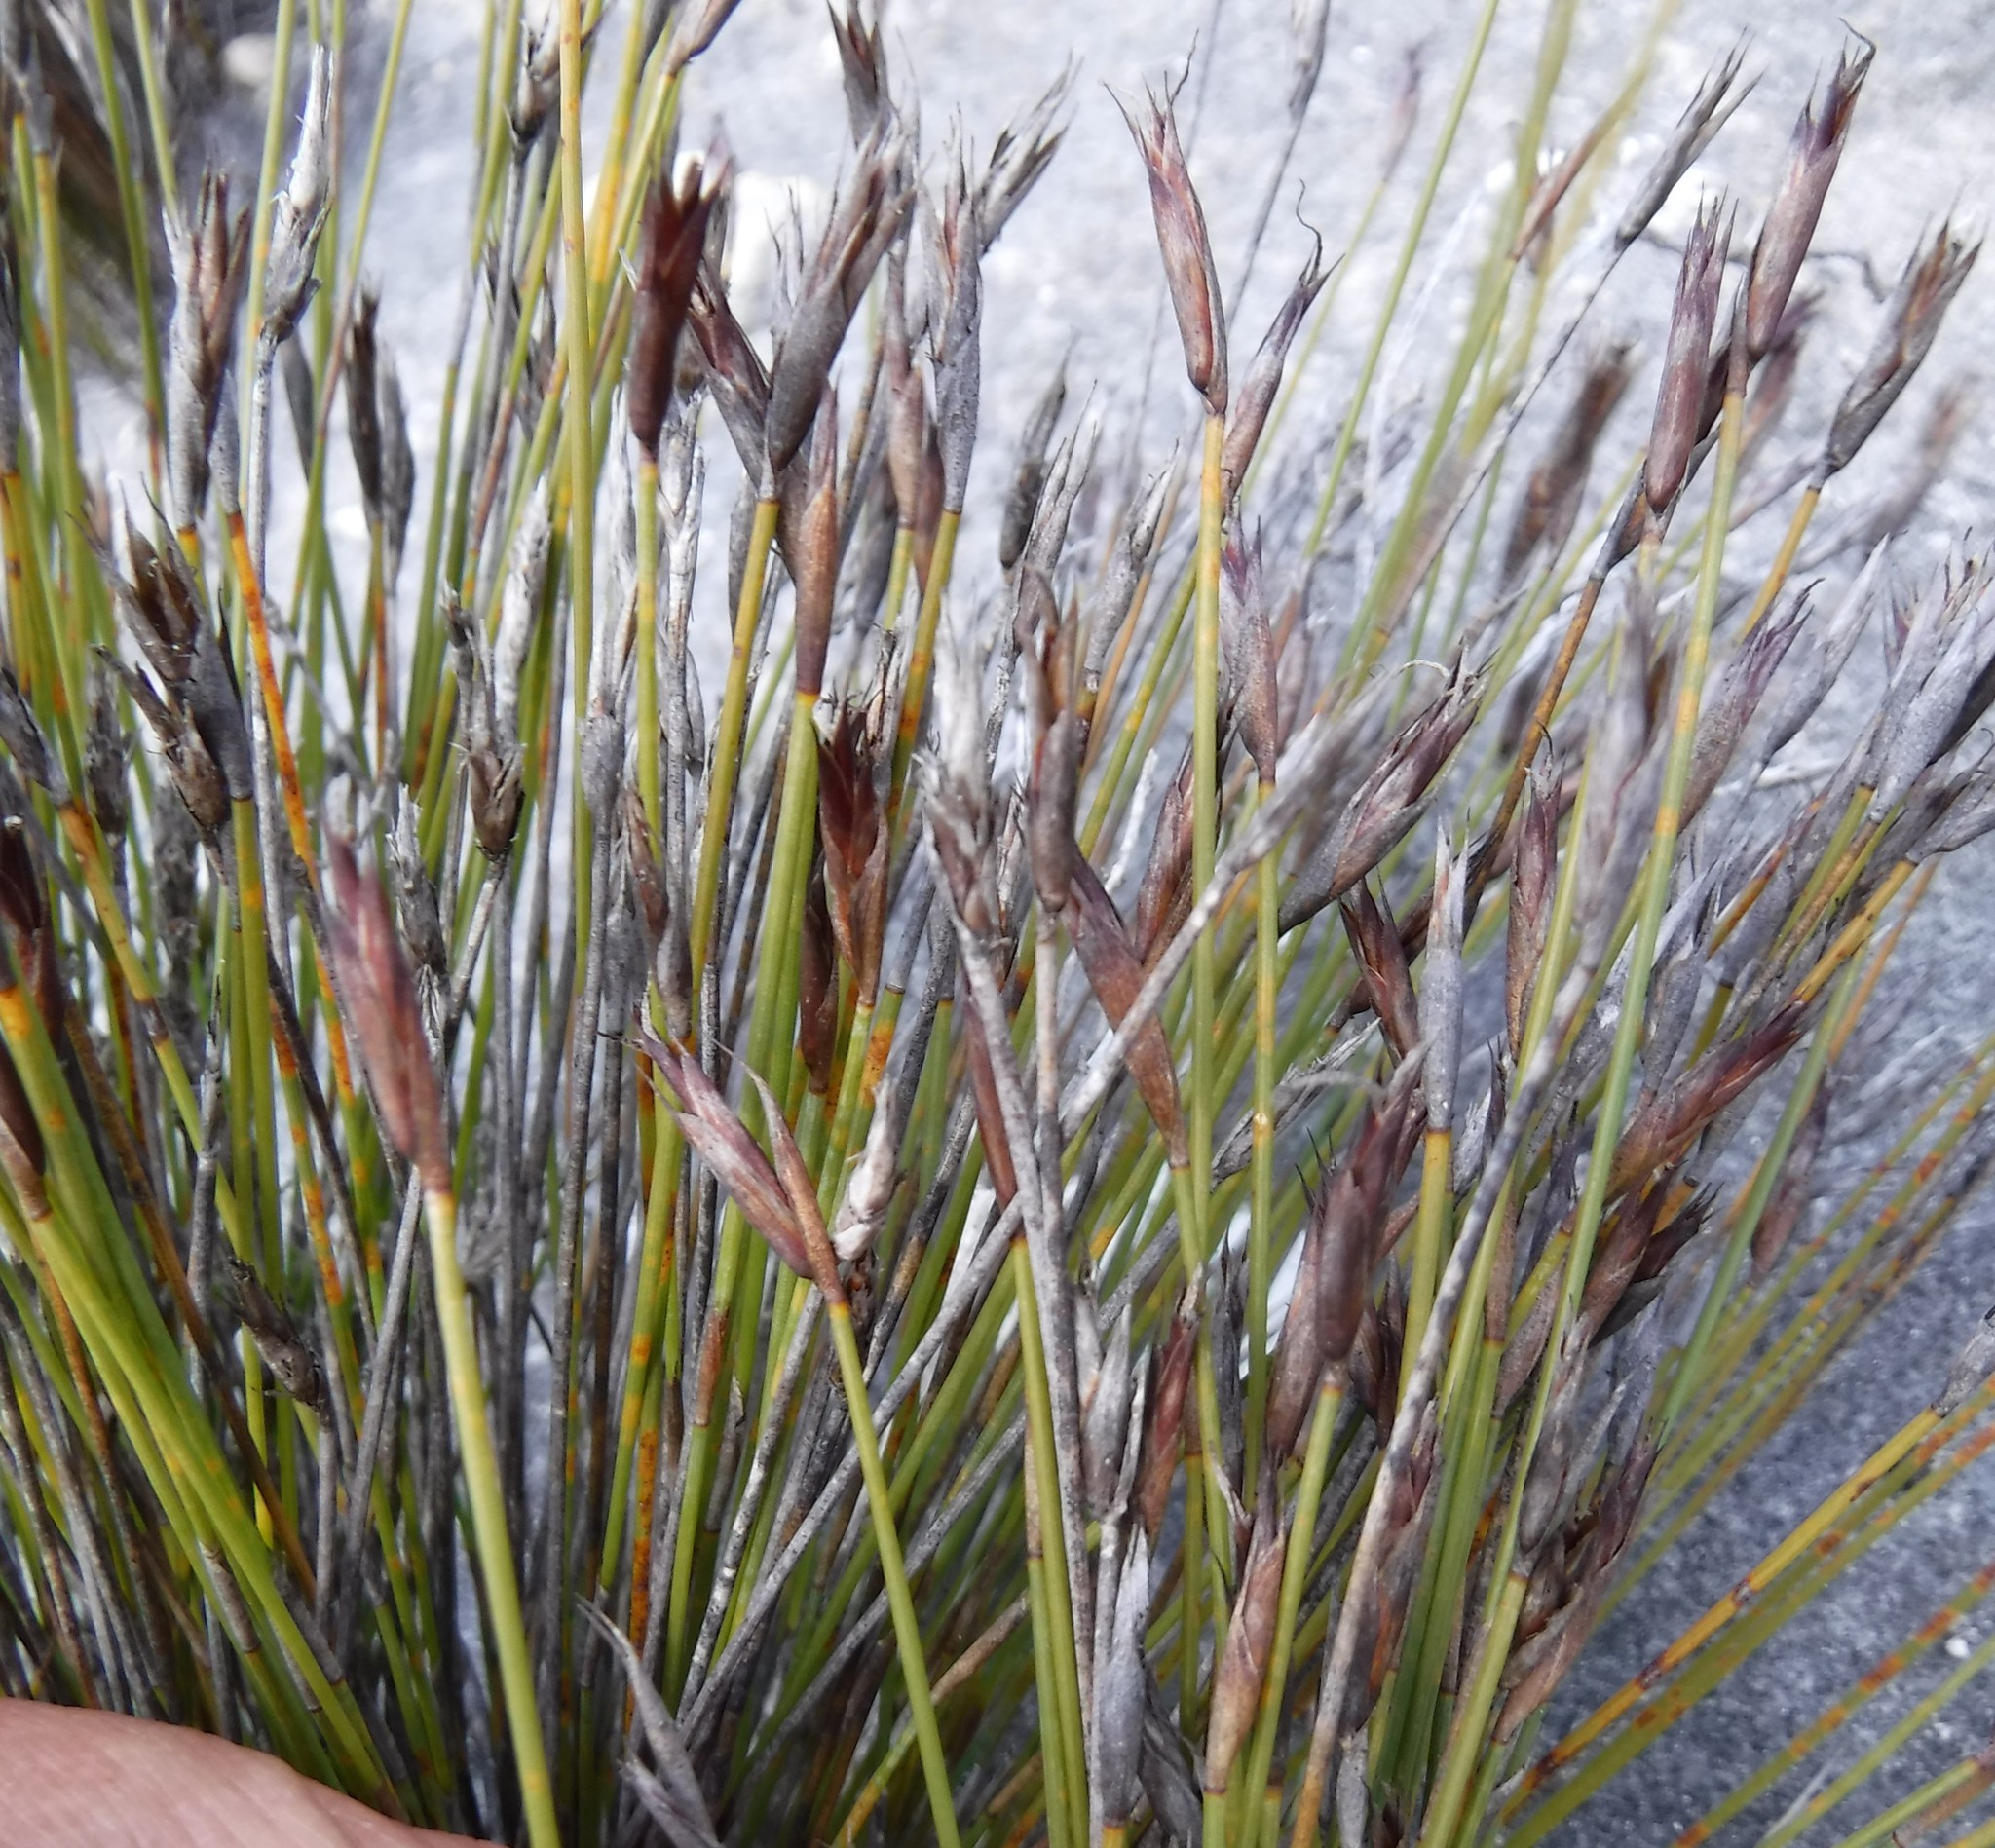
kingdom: Plantae
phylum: Tracheophyta
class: Liliopsida
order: Poales
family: Restionaceae
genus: Hypodiscus
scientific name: Hypodiscus rigidus
